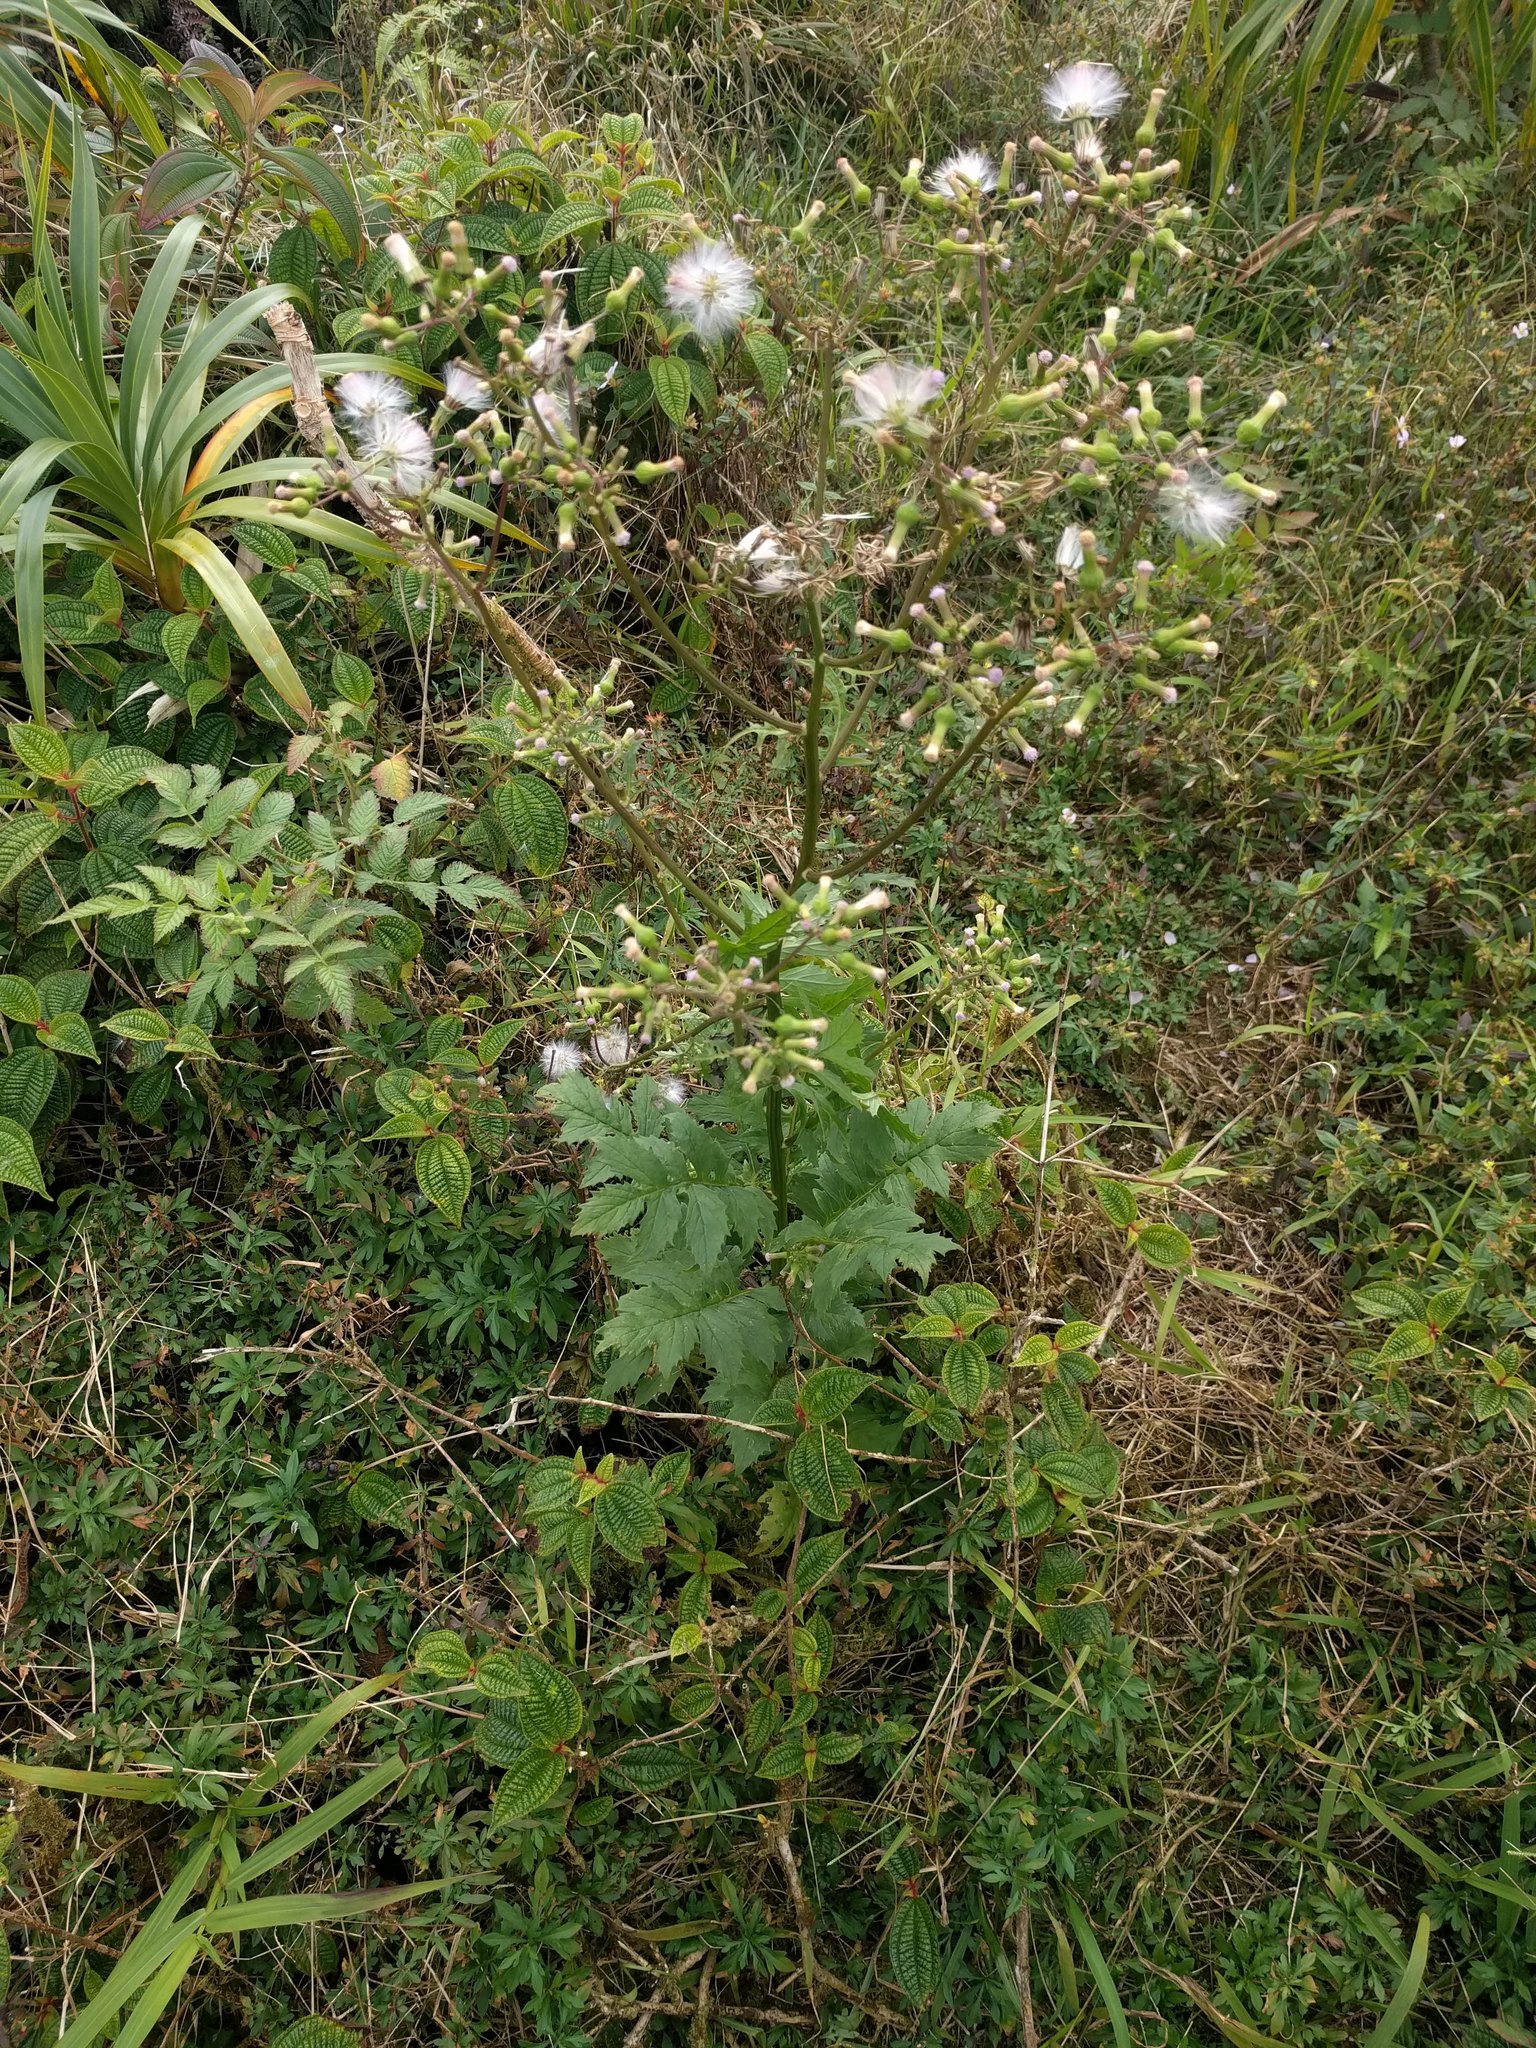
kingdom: Plantae
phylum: Tracheophyta
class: Magnoliopsida
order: Asterales
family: Asteraceae
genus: Erechtites
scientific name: Erechtites valerianifolius
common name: Tropical burnweed
